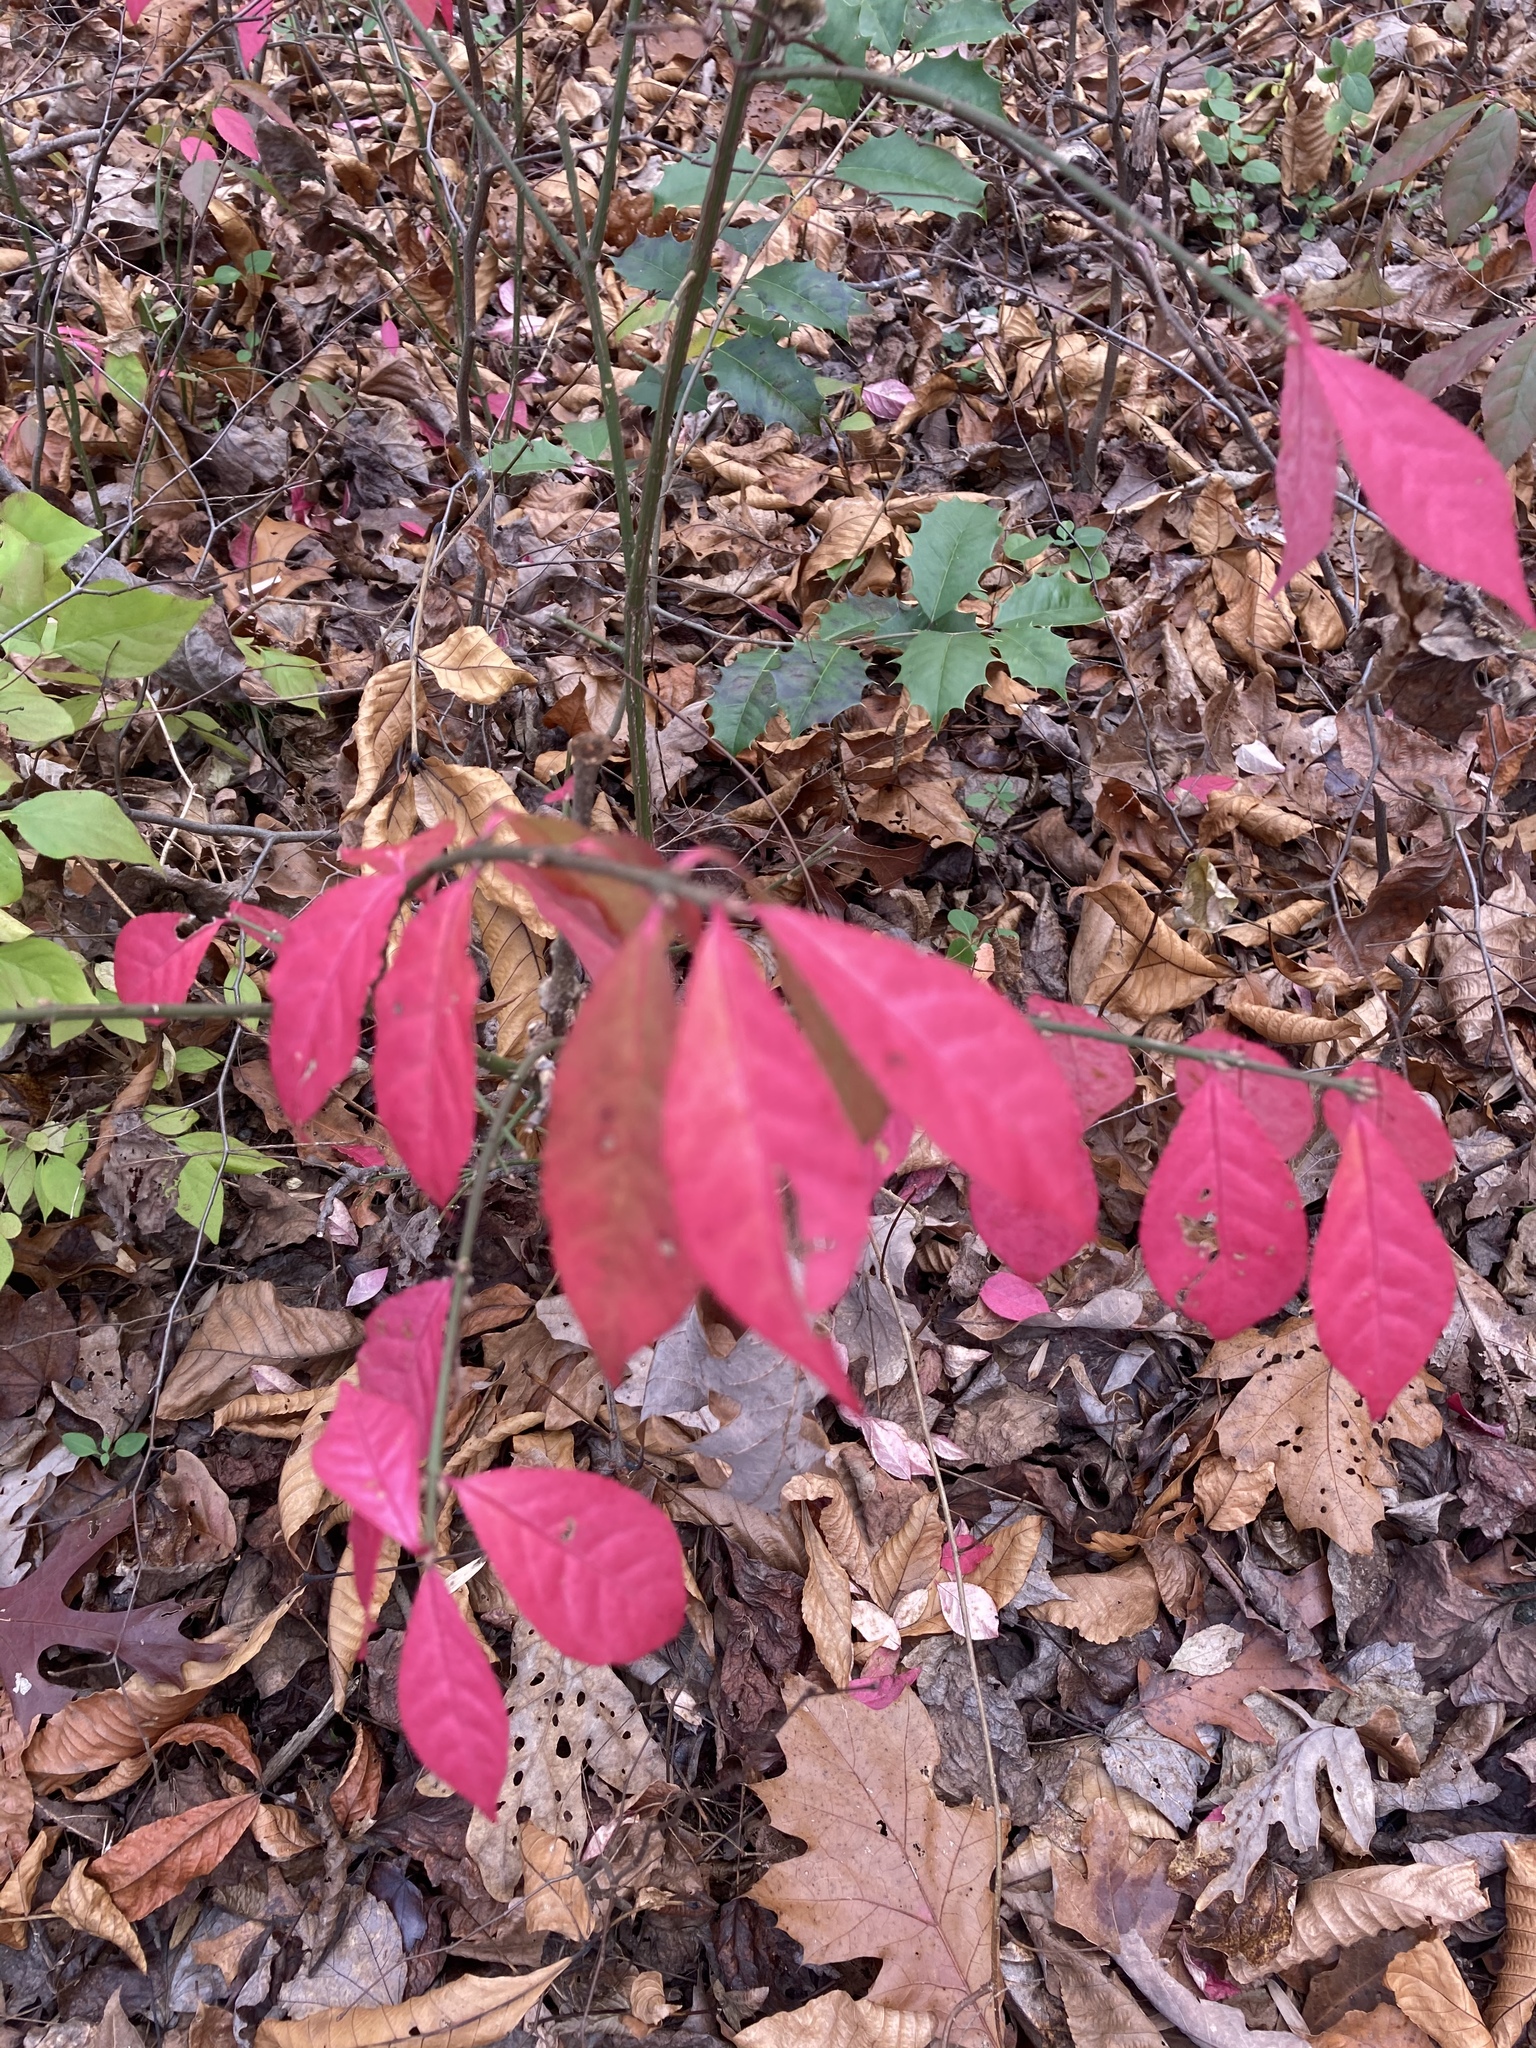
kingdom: Plantae
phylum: Tracheophyta
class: Magnoliopsida
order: Celastrales
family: Celastraceae
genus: Euonymus
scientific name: Euonymus alatus
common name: Winged euonymus
